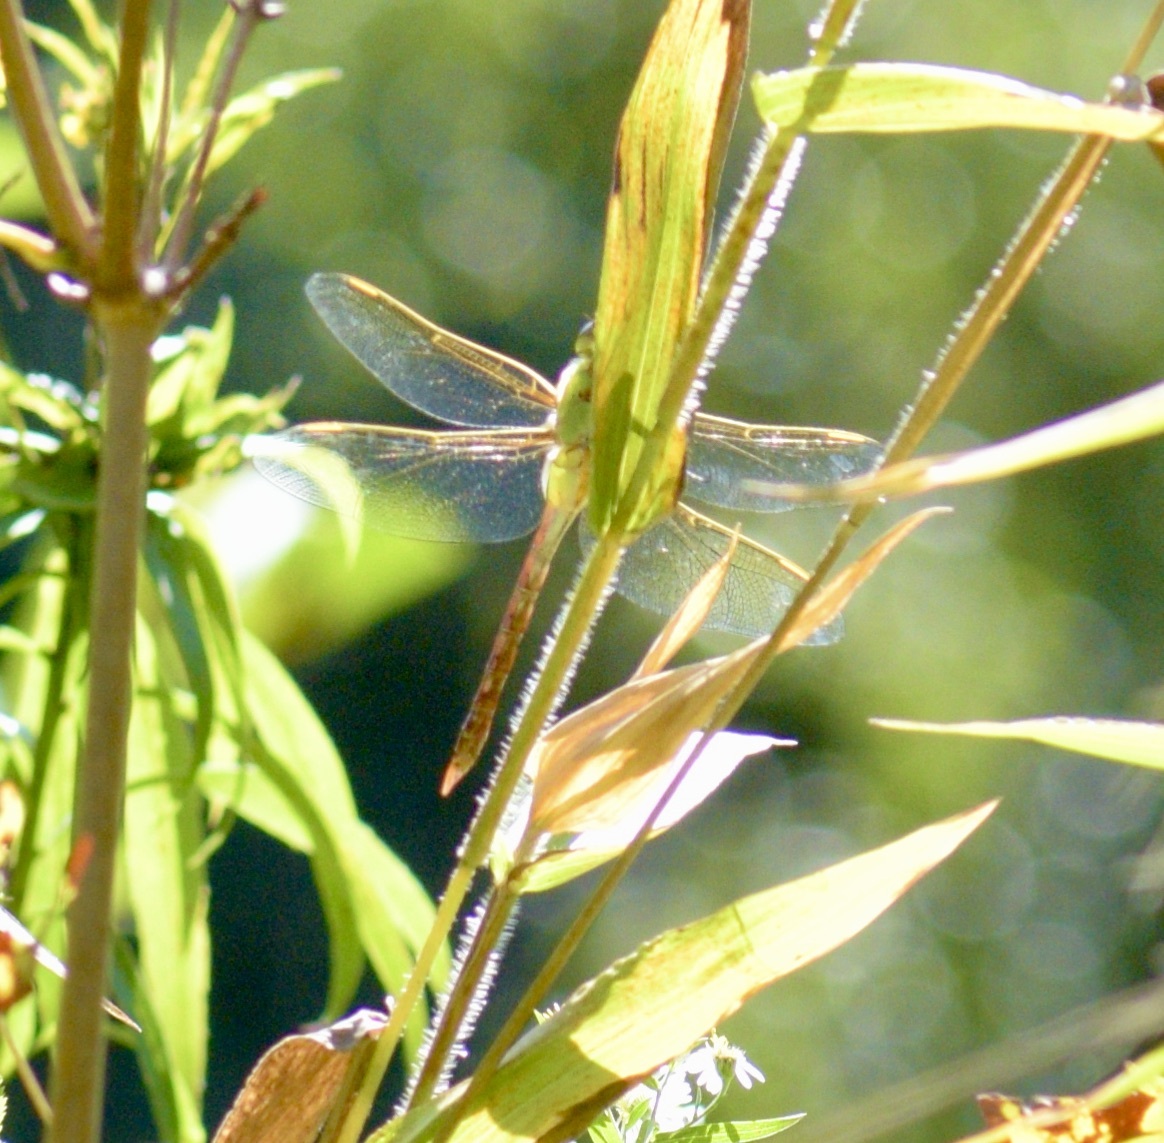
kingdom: Animalia
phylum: Arthropoda
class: Insecta
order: Odonata
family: Aeshnidae
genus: Anax
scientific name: Anax junius
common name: Common green darner
